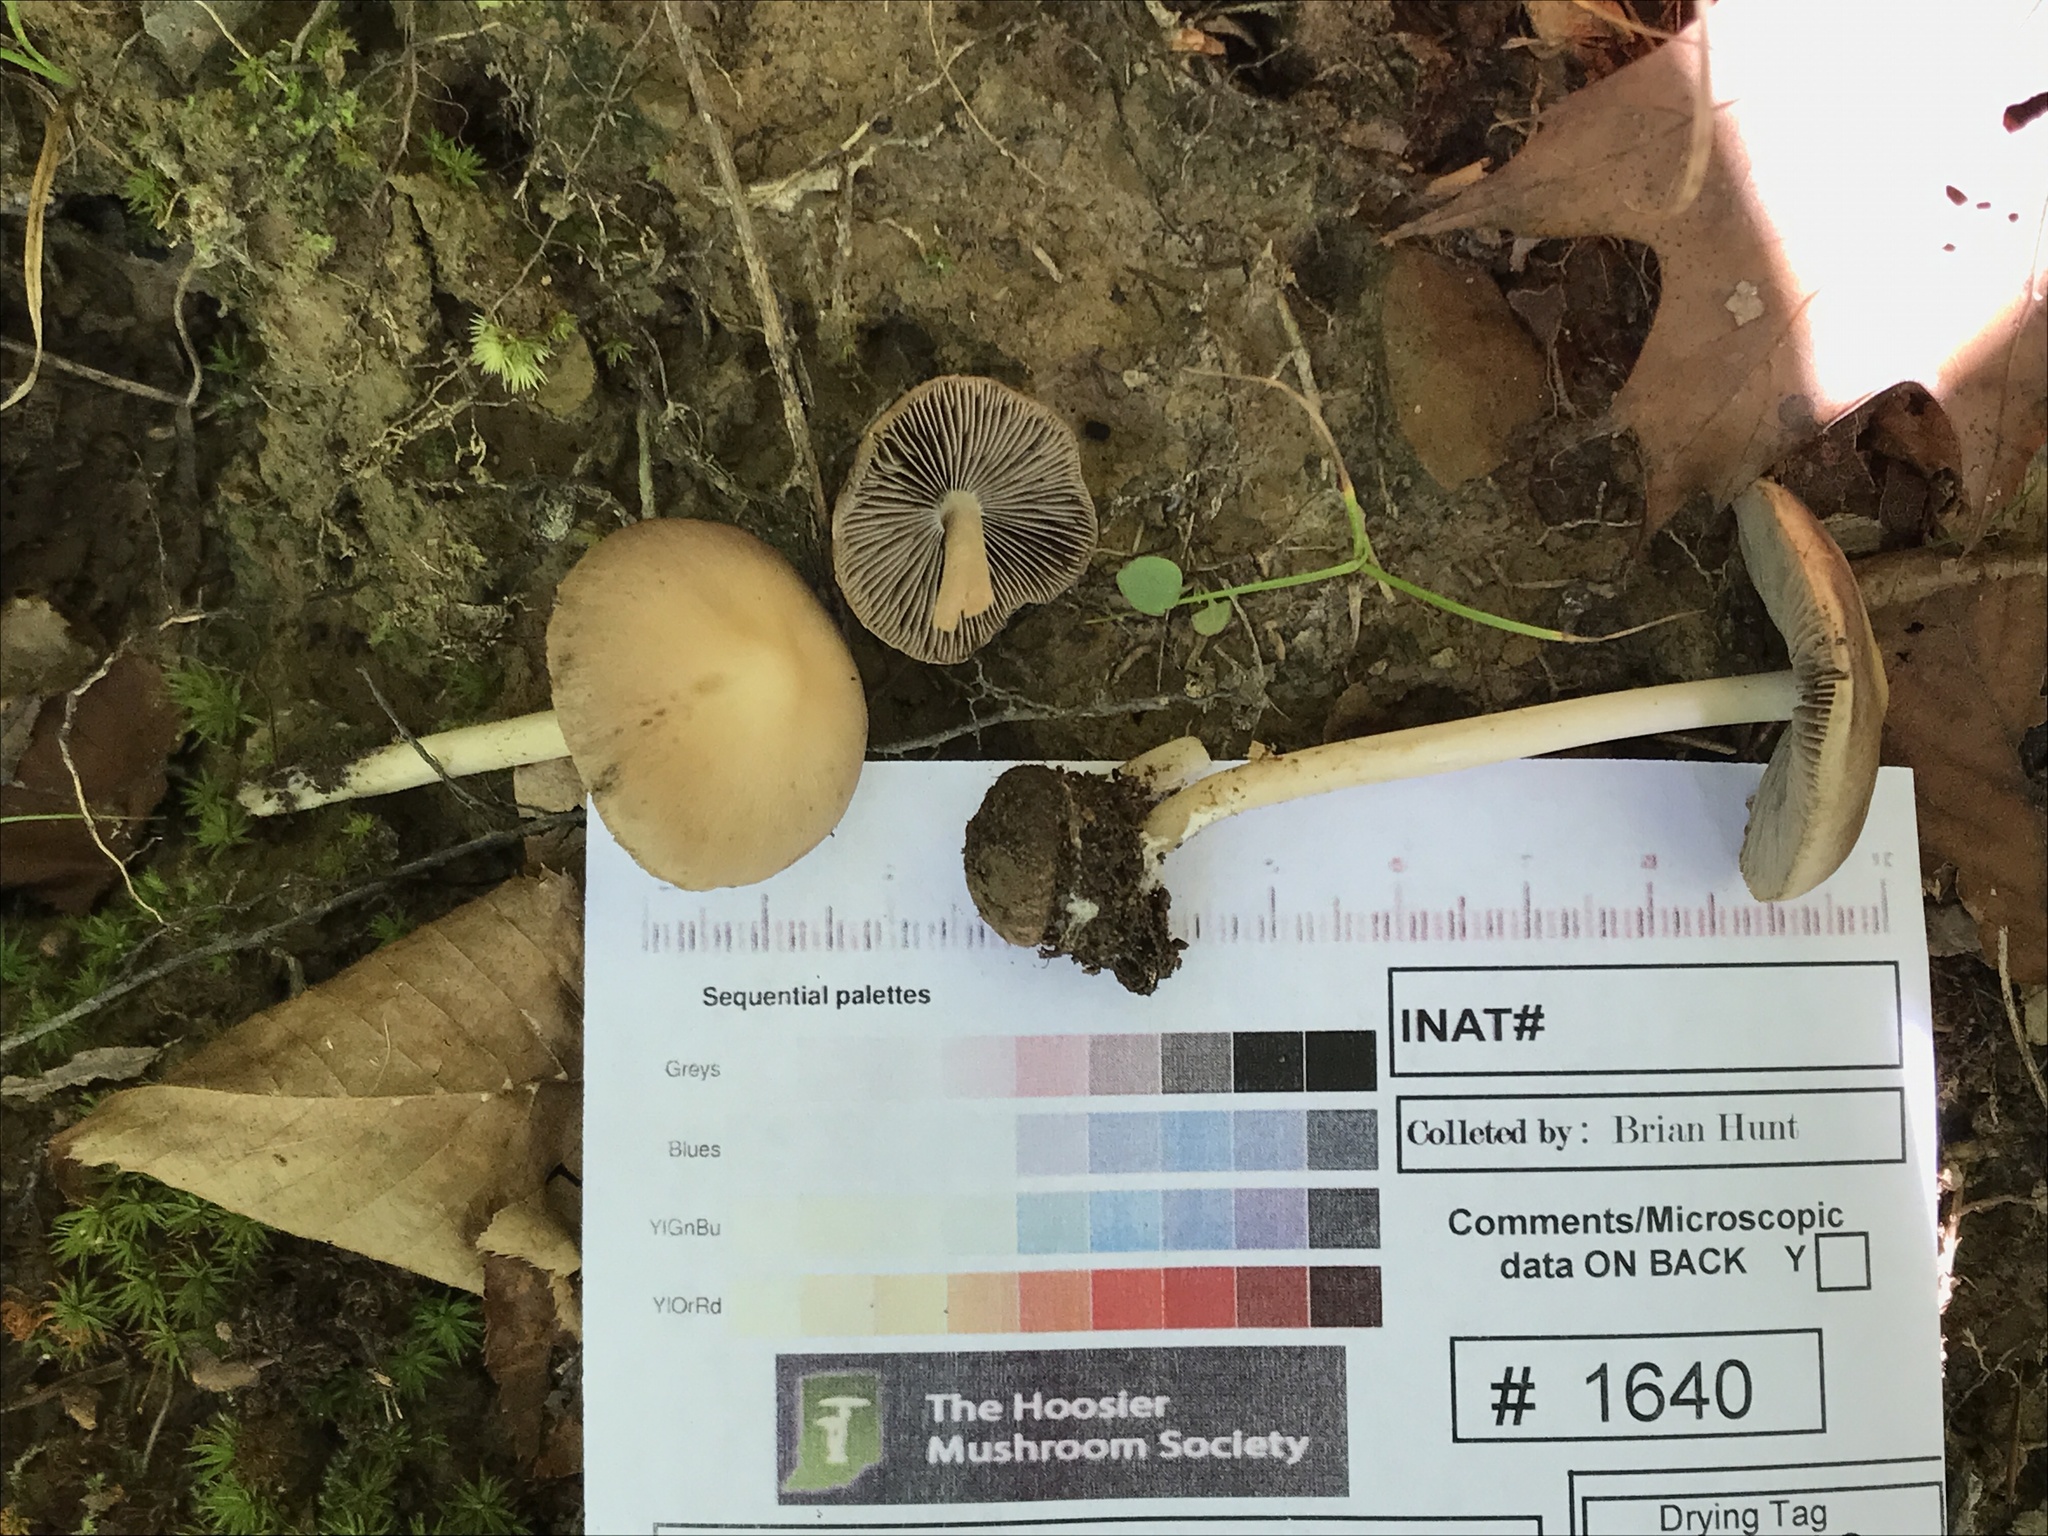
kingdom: Fungi
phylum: Basidiomycota
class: Agaricomycetes
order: Agaricales
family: Psathyrellaceae
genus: Psathyrella
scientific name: Psathyrella kauffmanii
